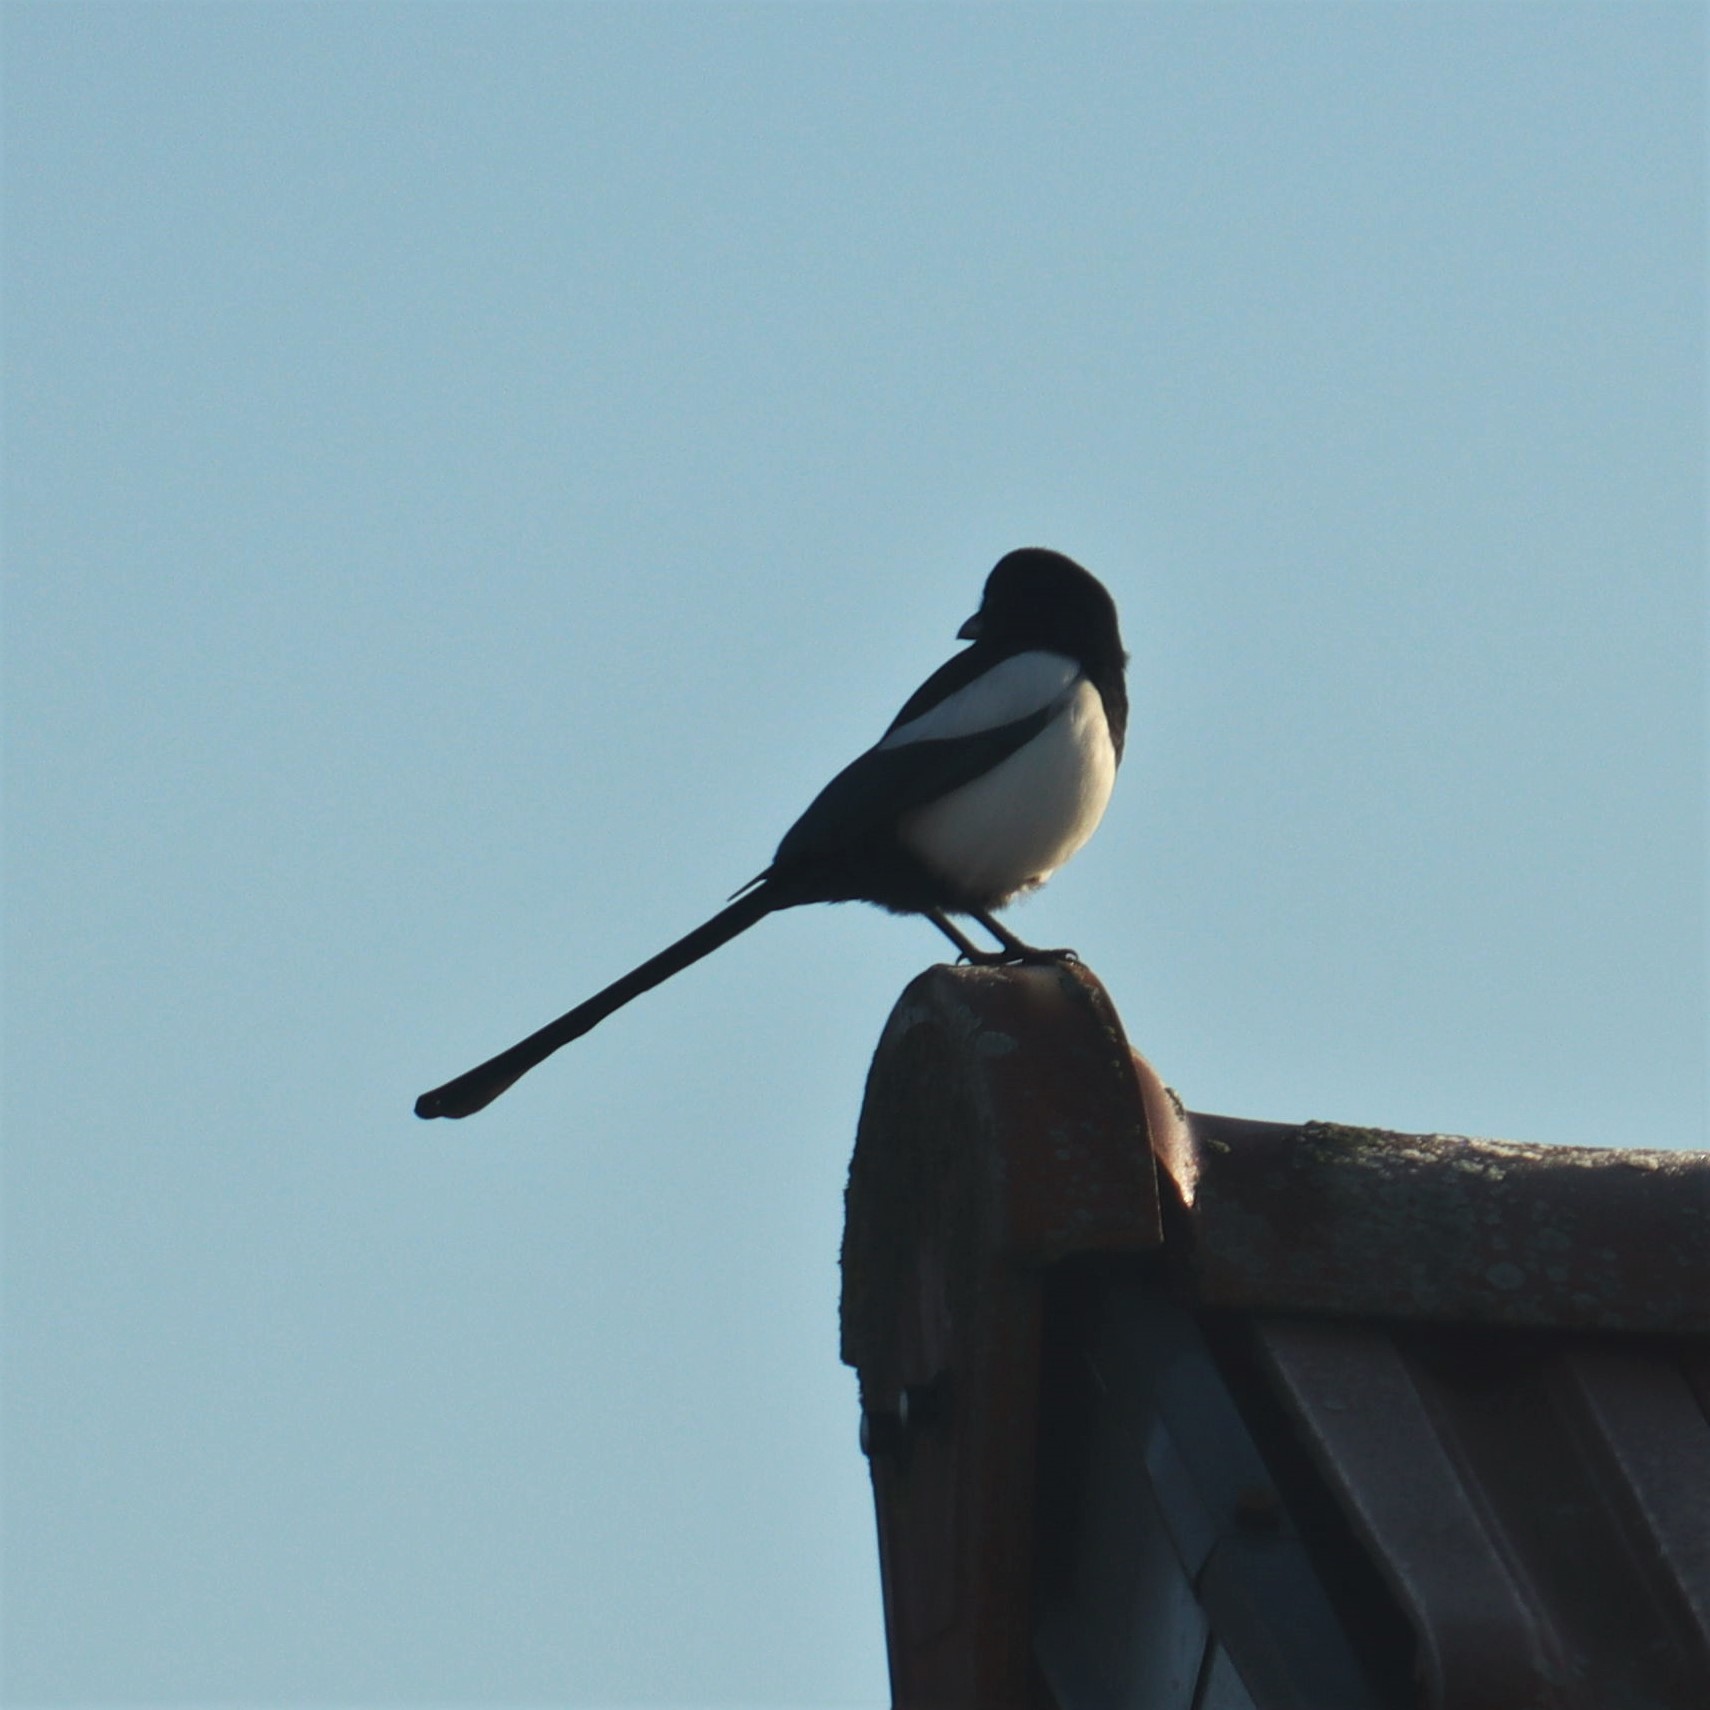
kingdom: Animalia
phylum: Chordata
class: Aves
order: Passeriformes
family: Corvidae
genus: Pica
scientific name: Pica pica
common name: Eurasian magpie
